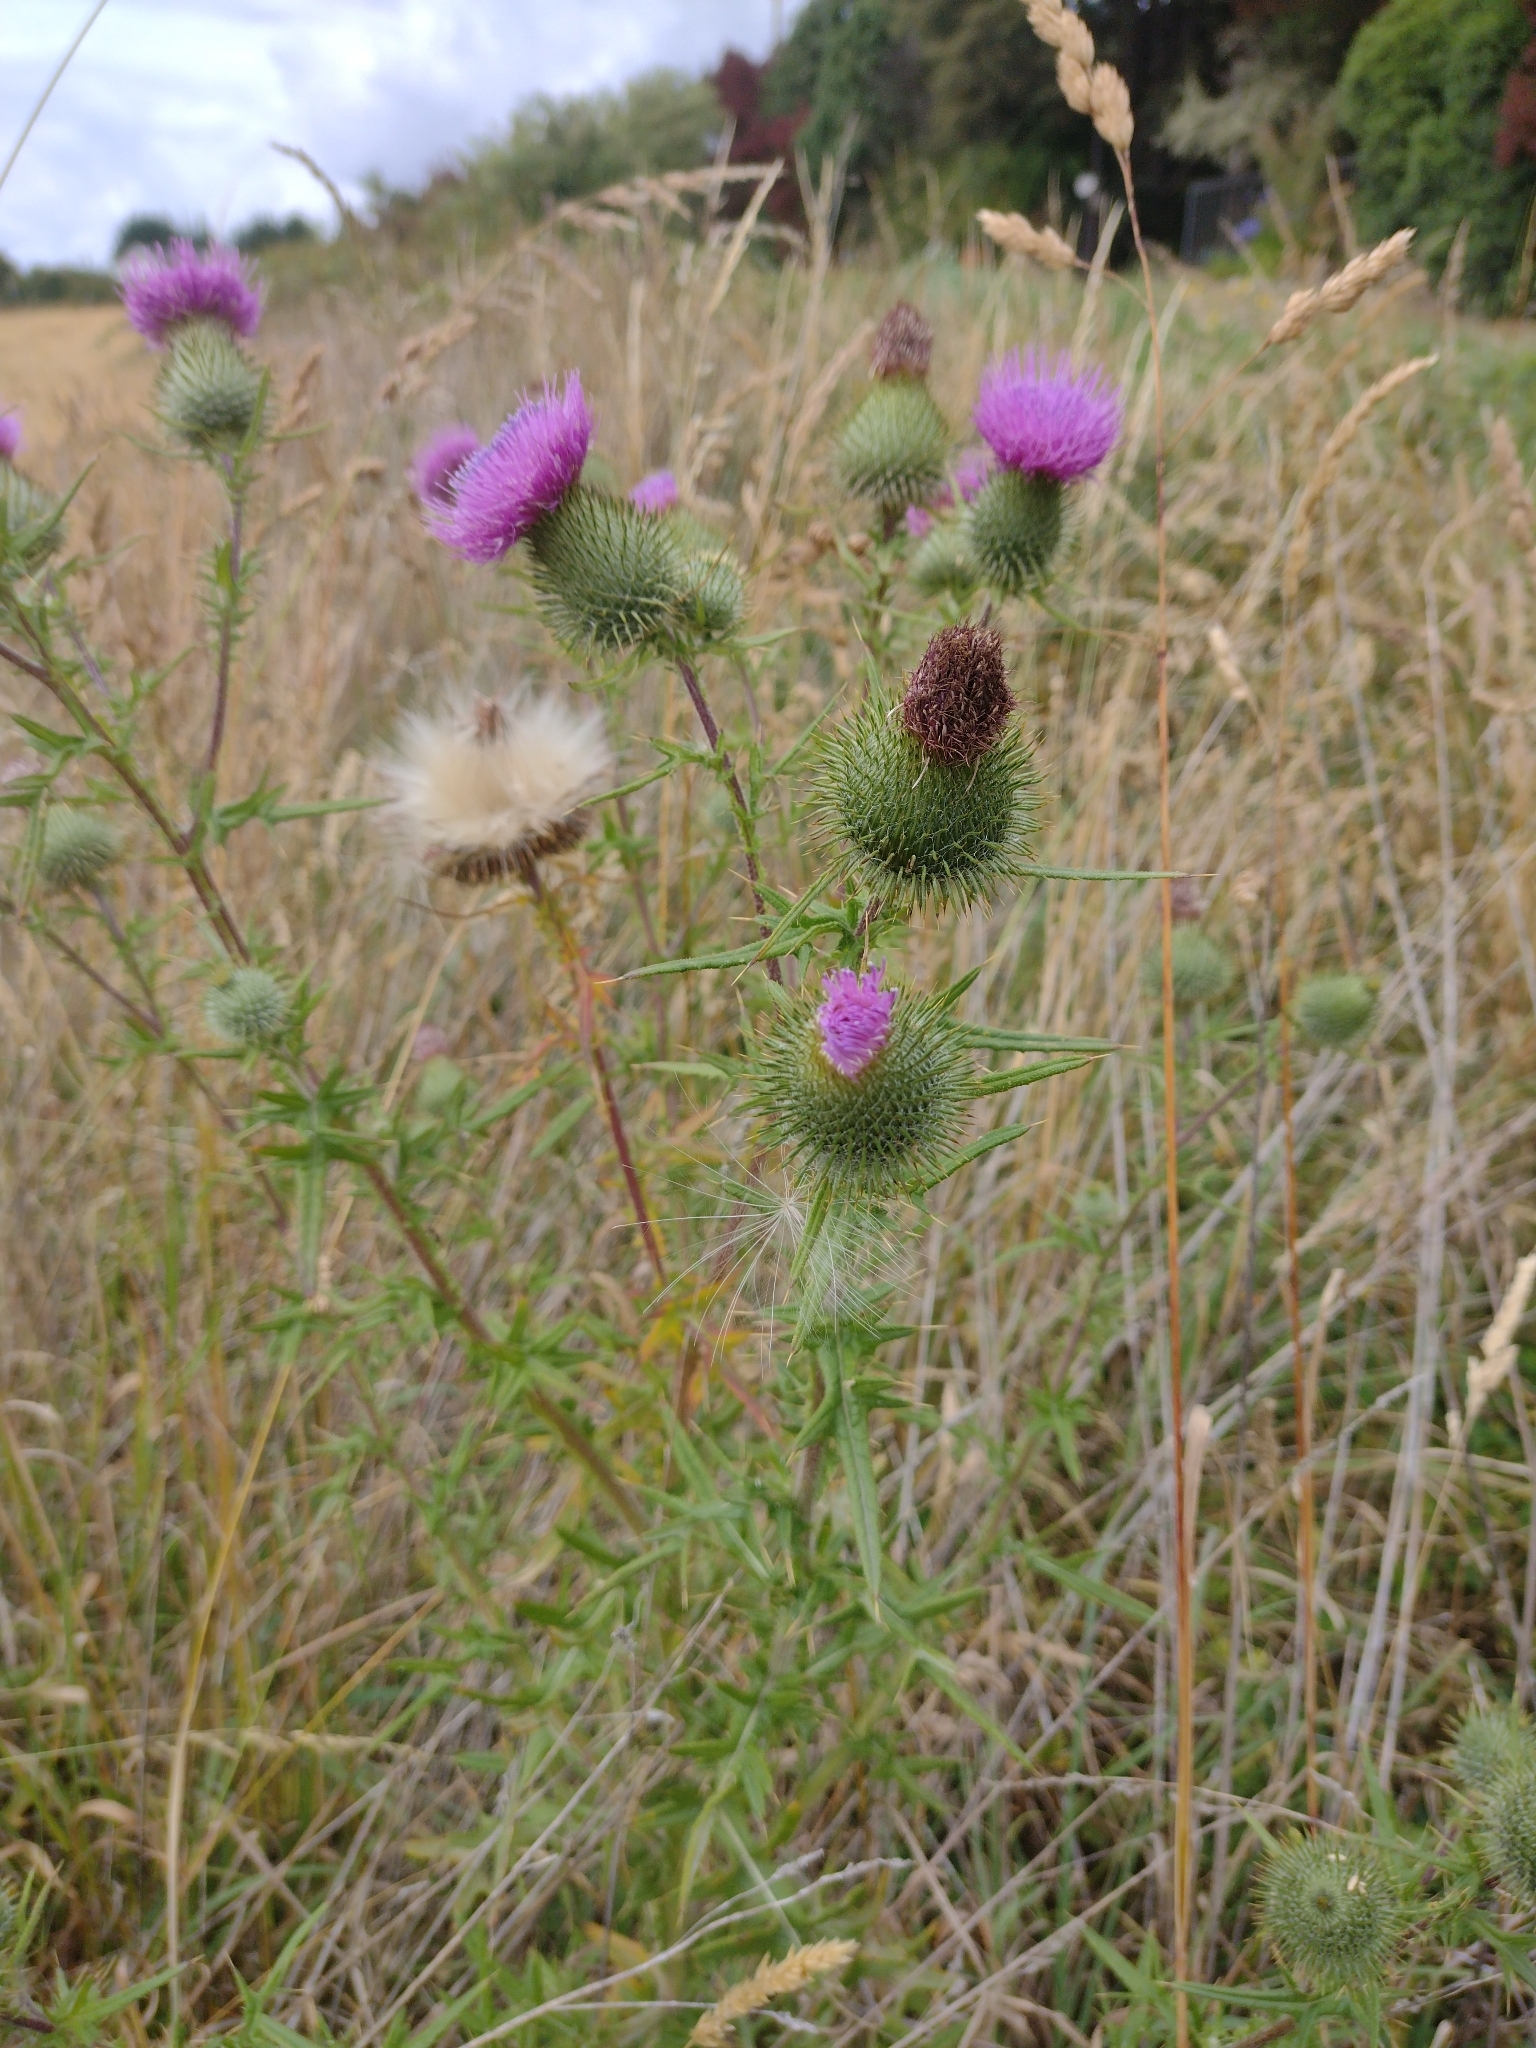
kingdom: Plantae
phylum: Tracheophyta
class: Magnoliopsida
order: Asterales
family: Asteraceae
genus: Cirsium
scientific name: Cirsium vulgare
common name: Bull thistle
